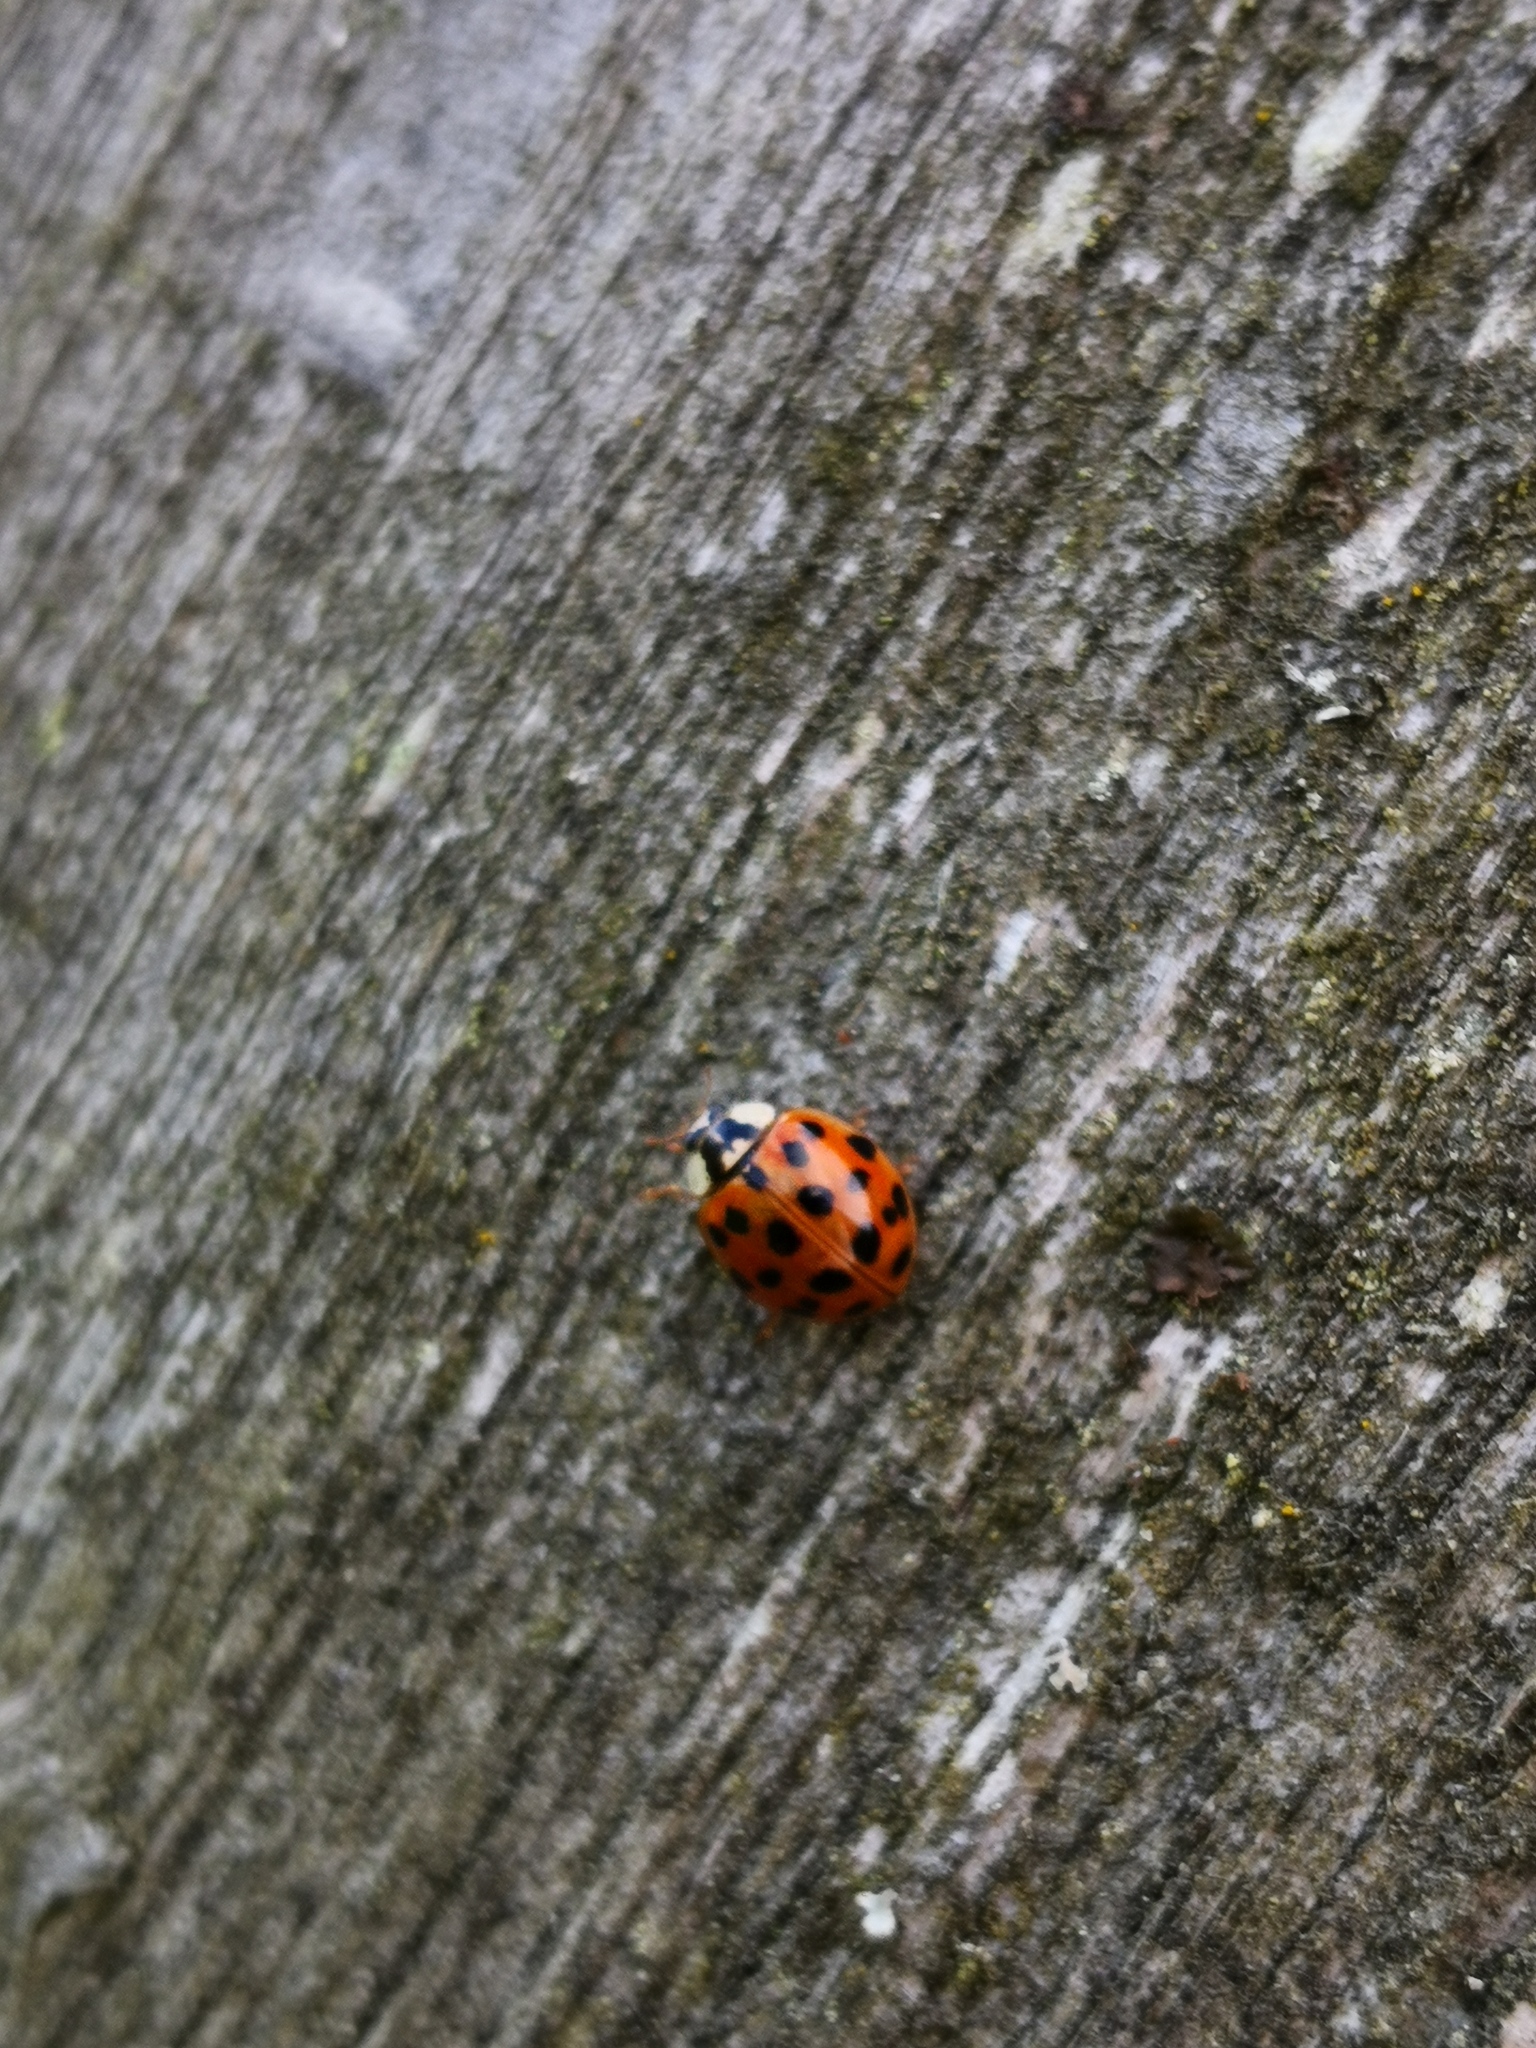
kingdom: Animalia
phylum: Arthropoda
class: Insecta
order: Coleoptera
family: Coccinellidae
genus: Harmonia
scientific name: Harmonia axyridis
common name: Harlequin ladybird
